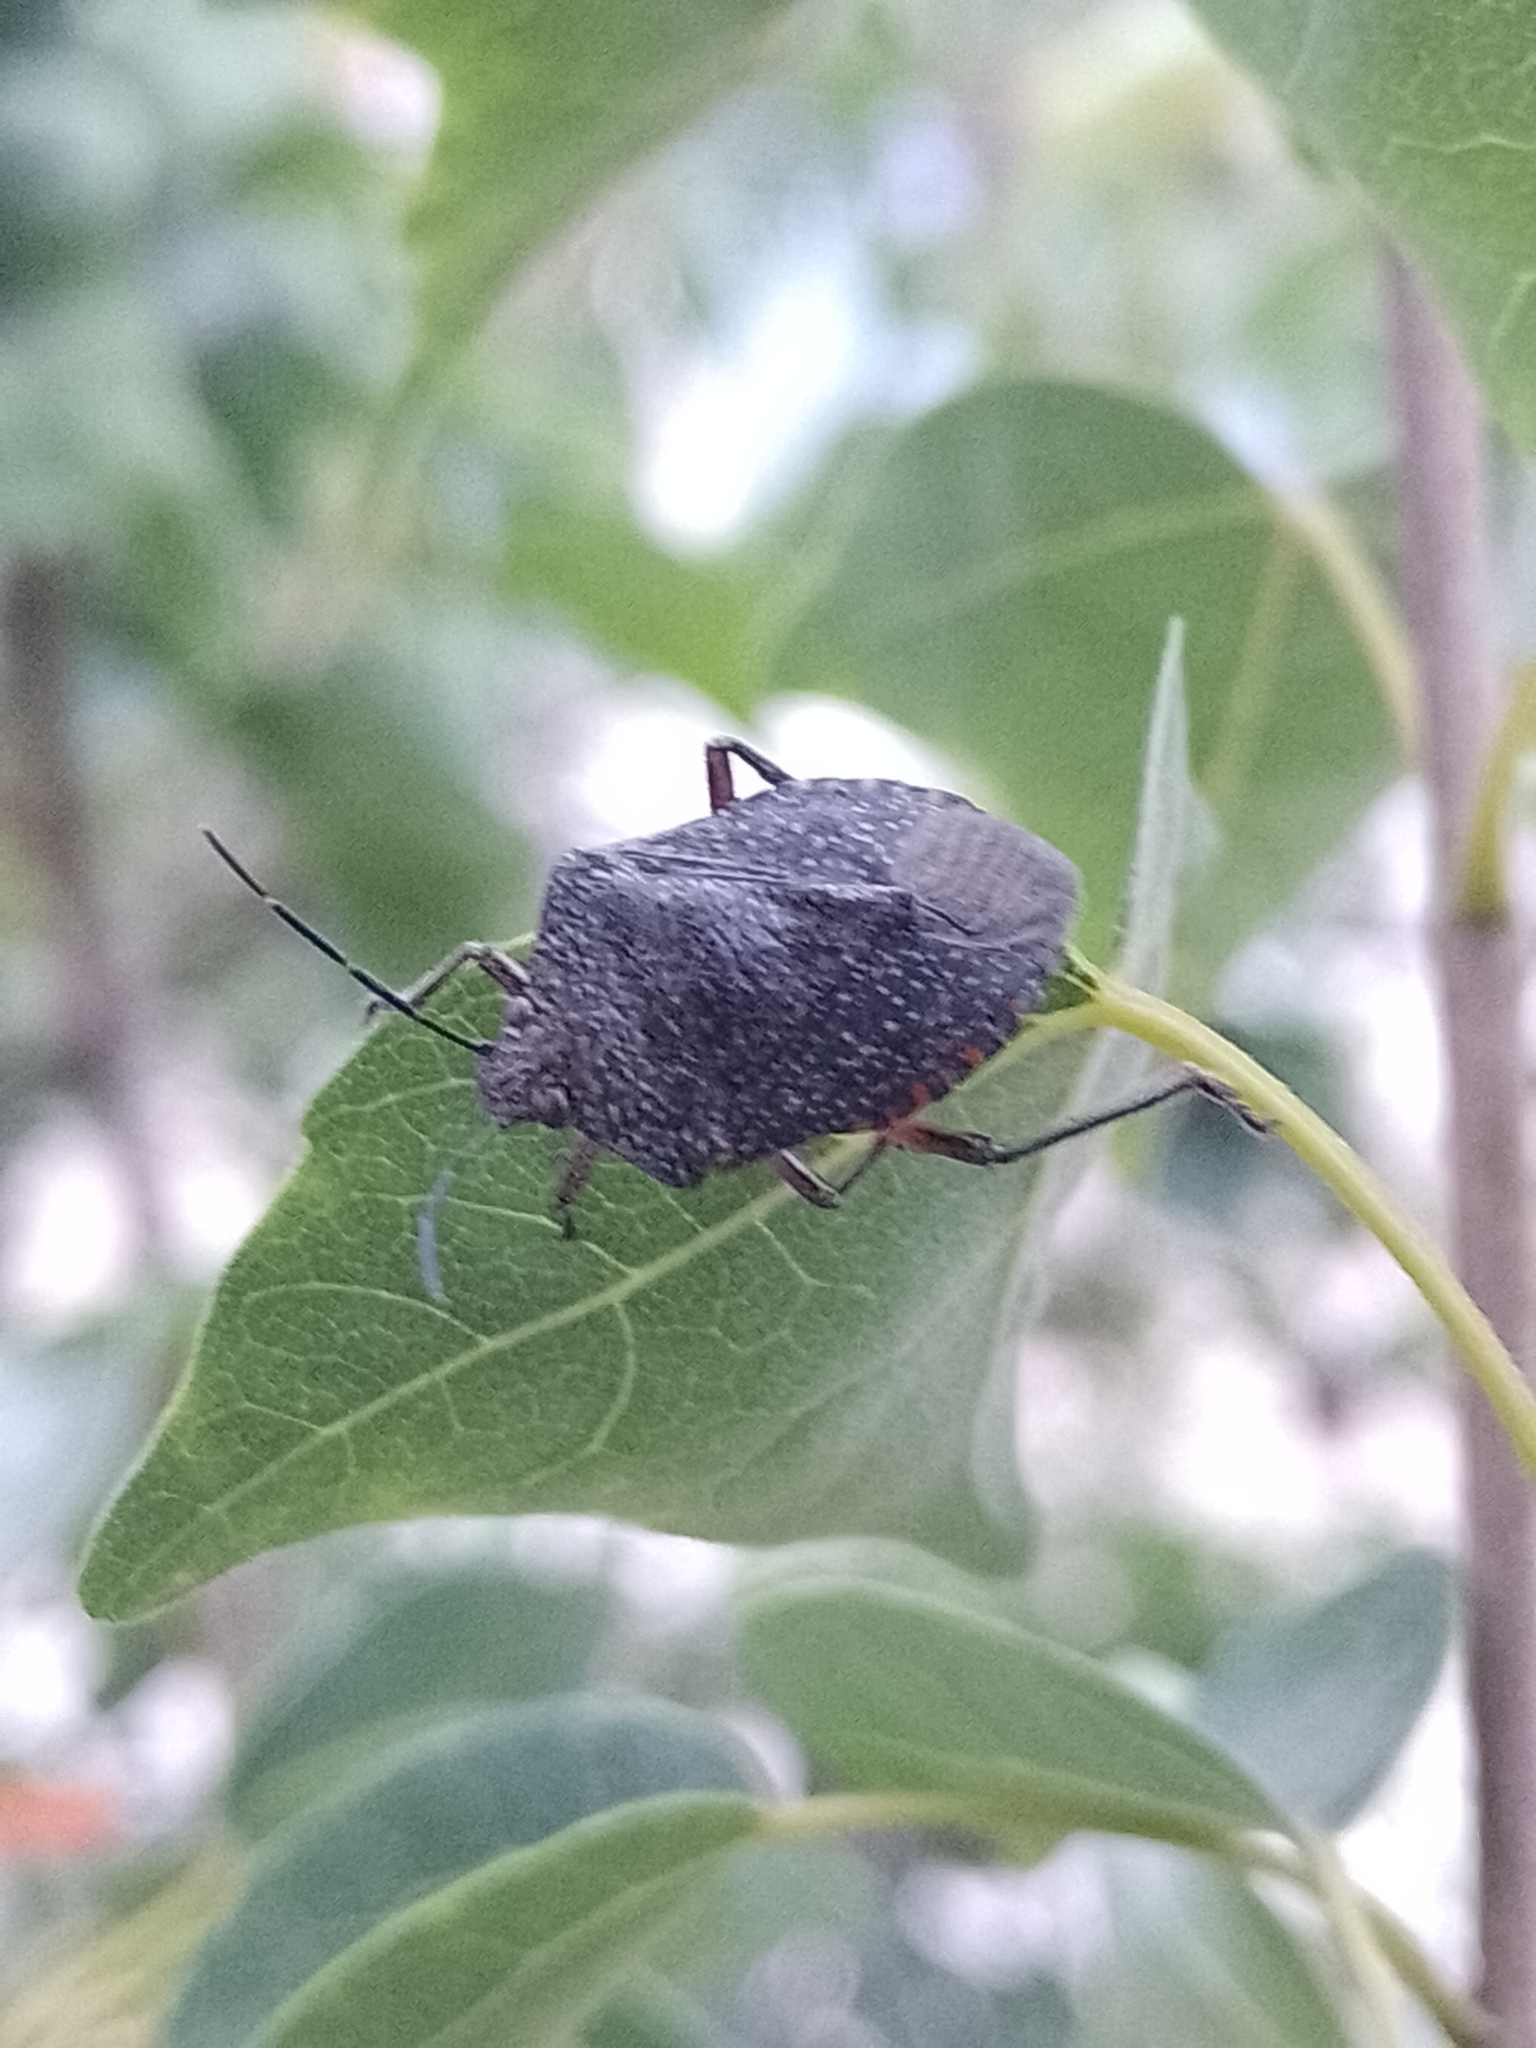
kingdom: Animalia
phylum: Arthropoda
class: Insecta
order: Hemiptera
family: Pentatomidae
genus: Pellaea
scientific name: Pellaea stictica
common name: Stink bug
